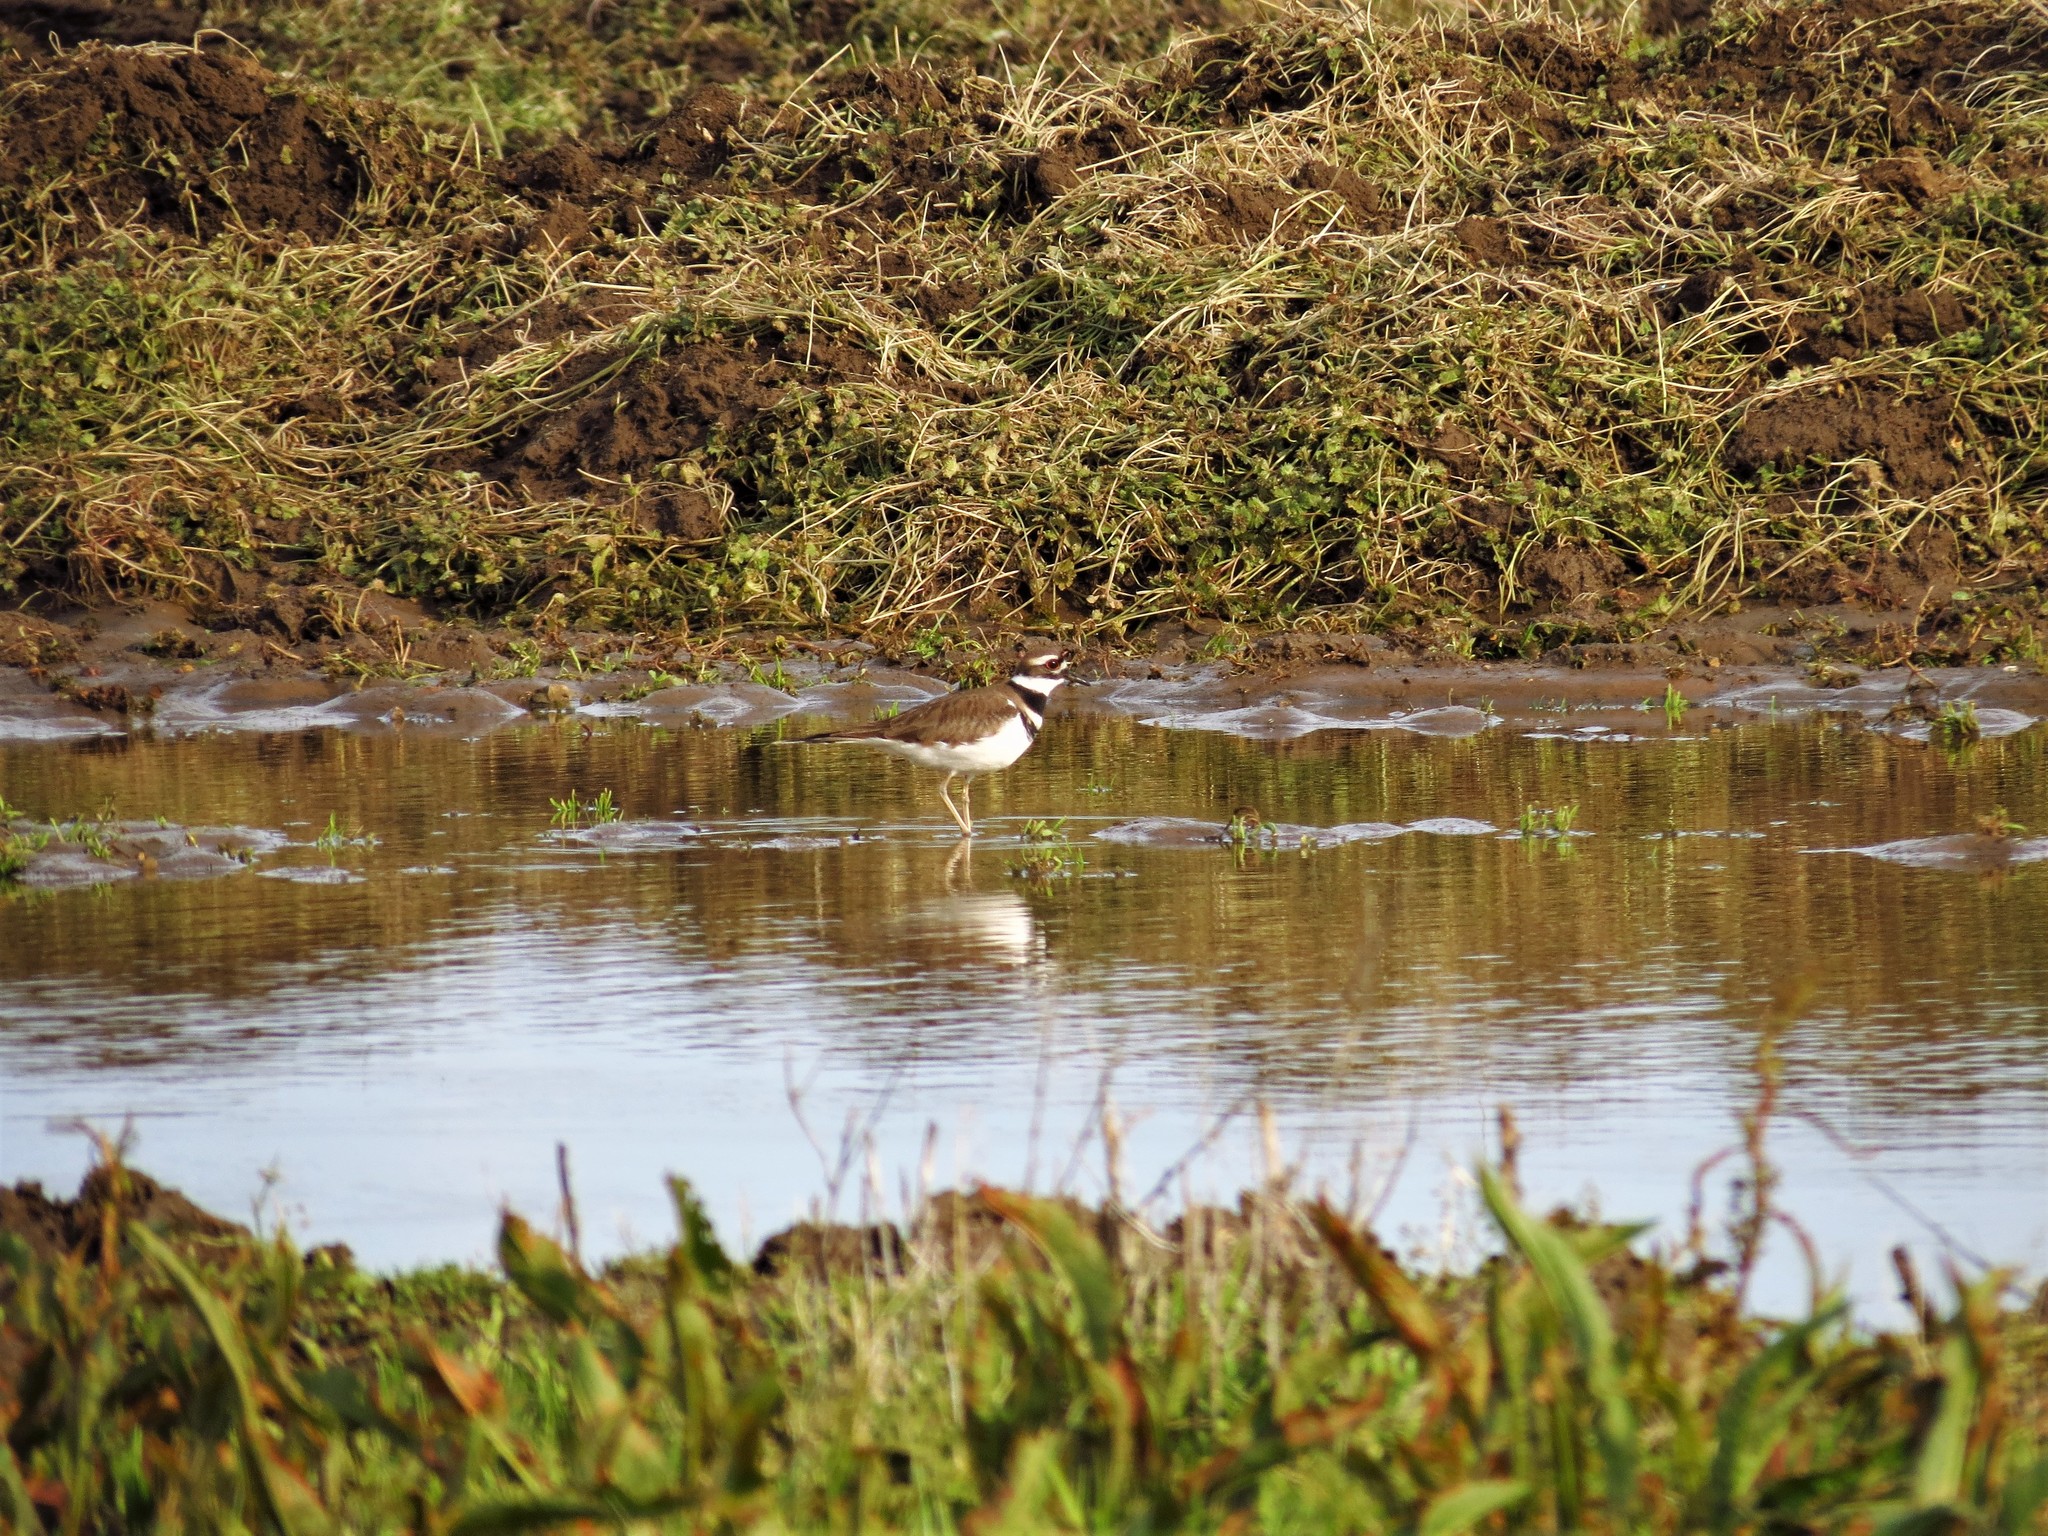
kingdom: Animalia
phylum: Chordata
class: Aves
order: Charadriiformes
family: Charadriidae
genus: Charadrius
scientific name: Charadrius vociferus
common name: Killdeer
